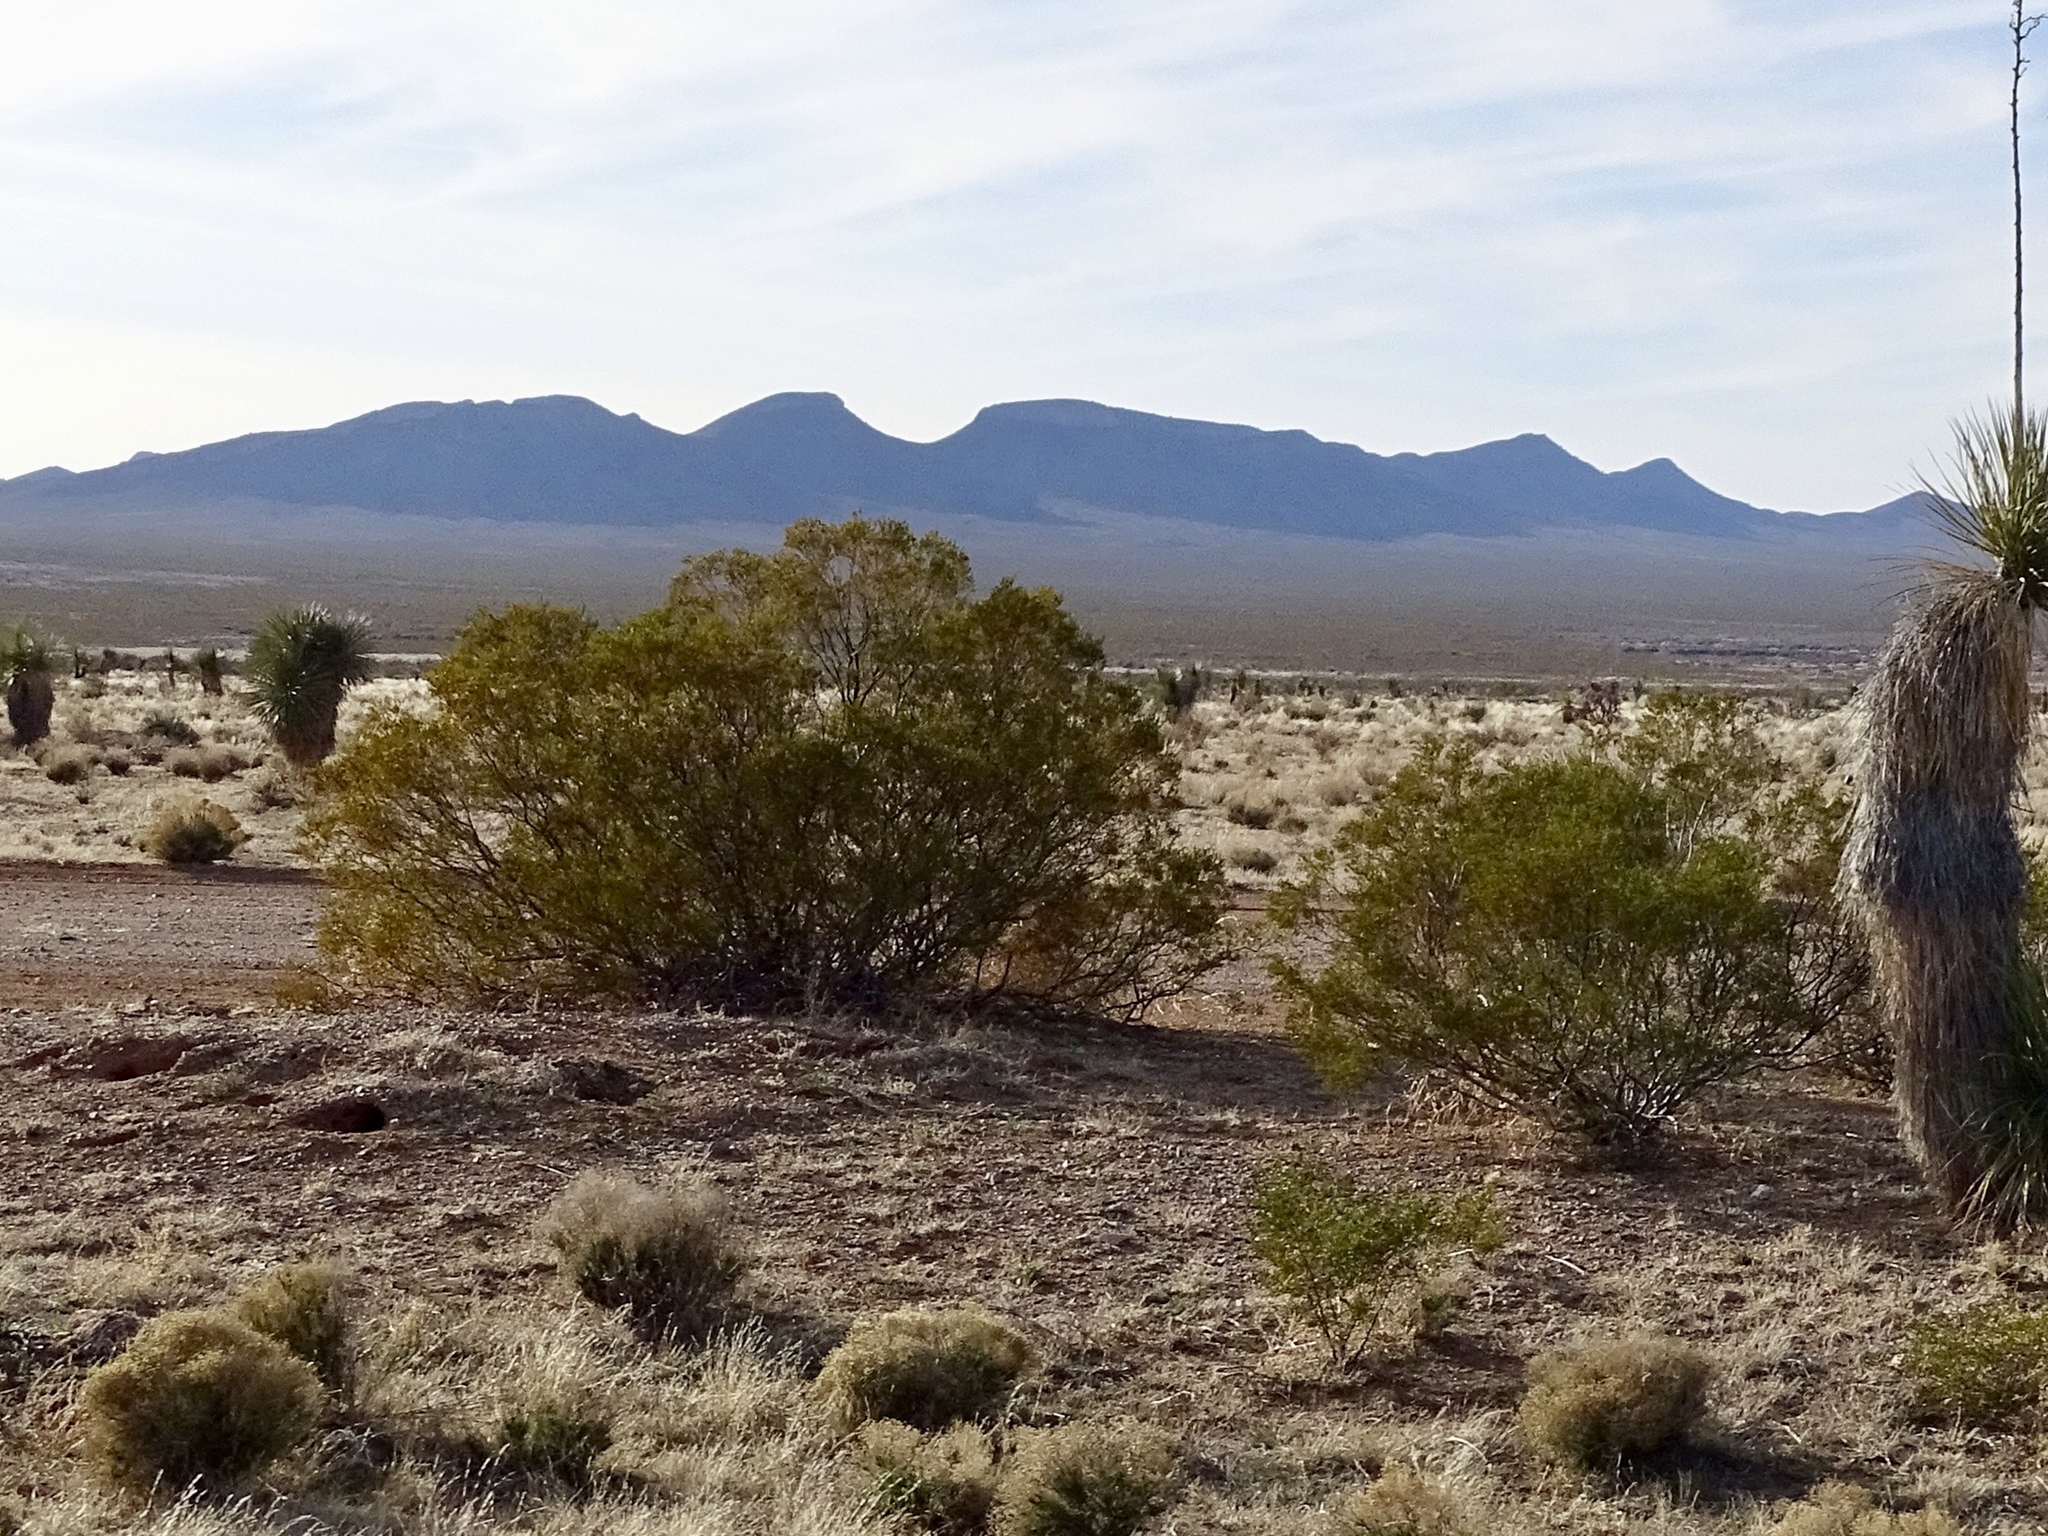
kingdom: Plantae
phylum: Tracheophyta
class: Magnoliopsida
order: Zygophyllales
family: Zygophyllaceae
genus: Larrea
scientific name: Larrea tridentata
